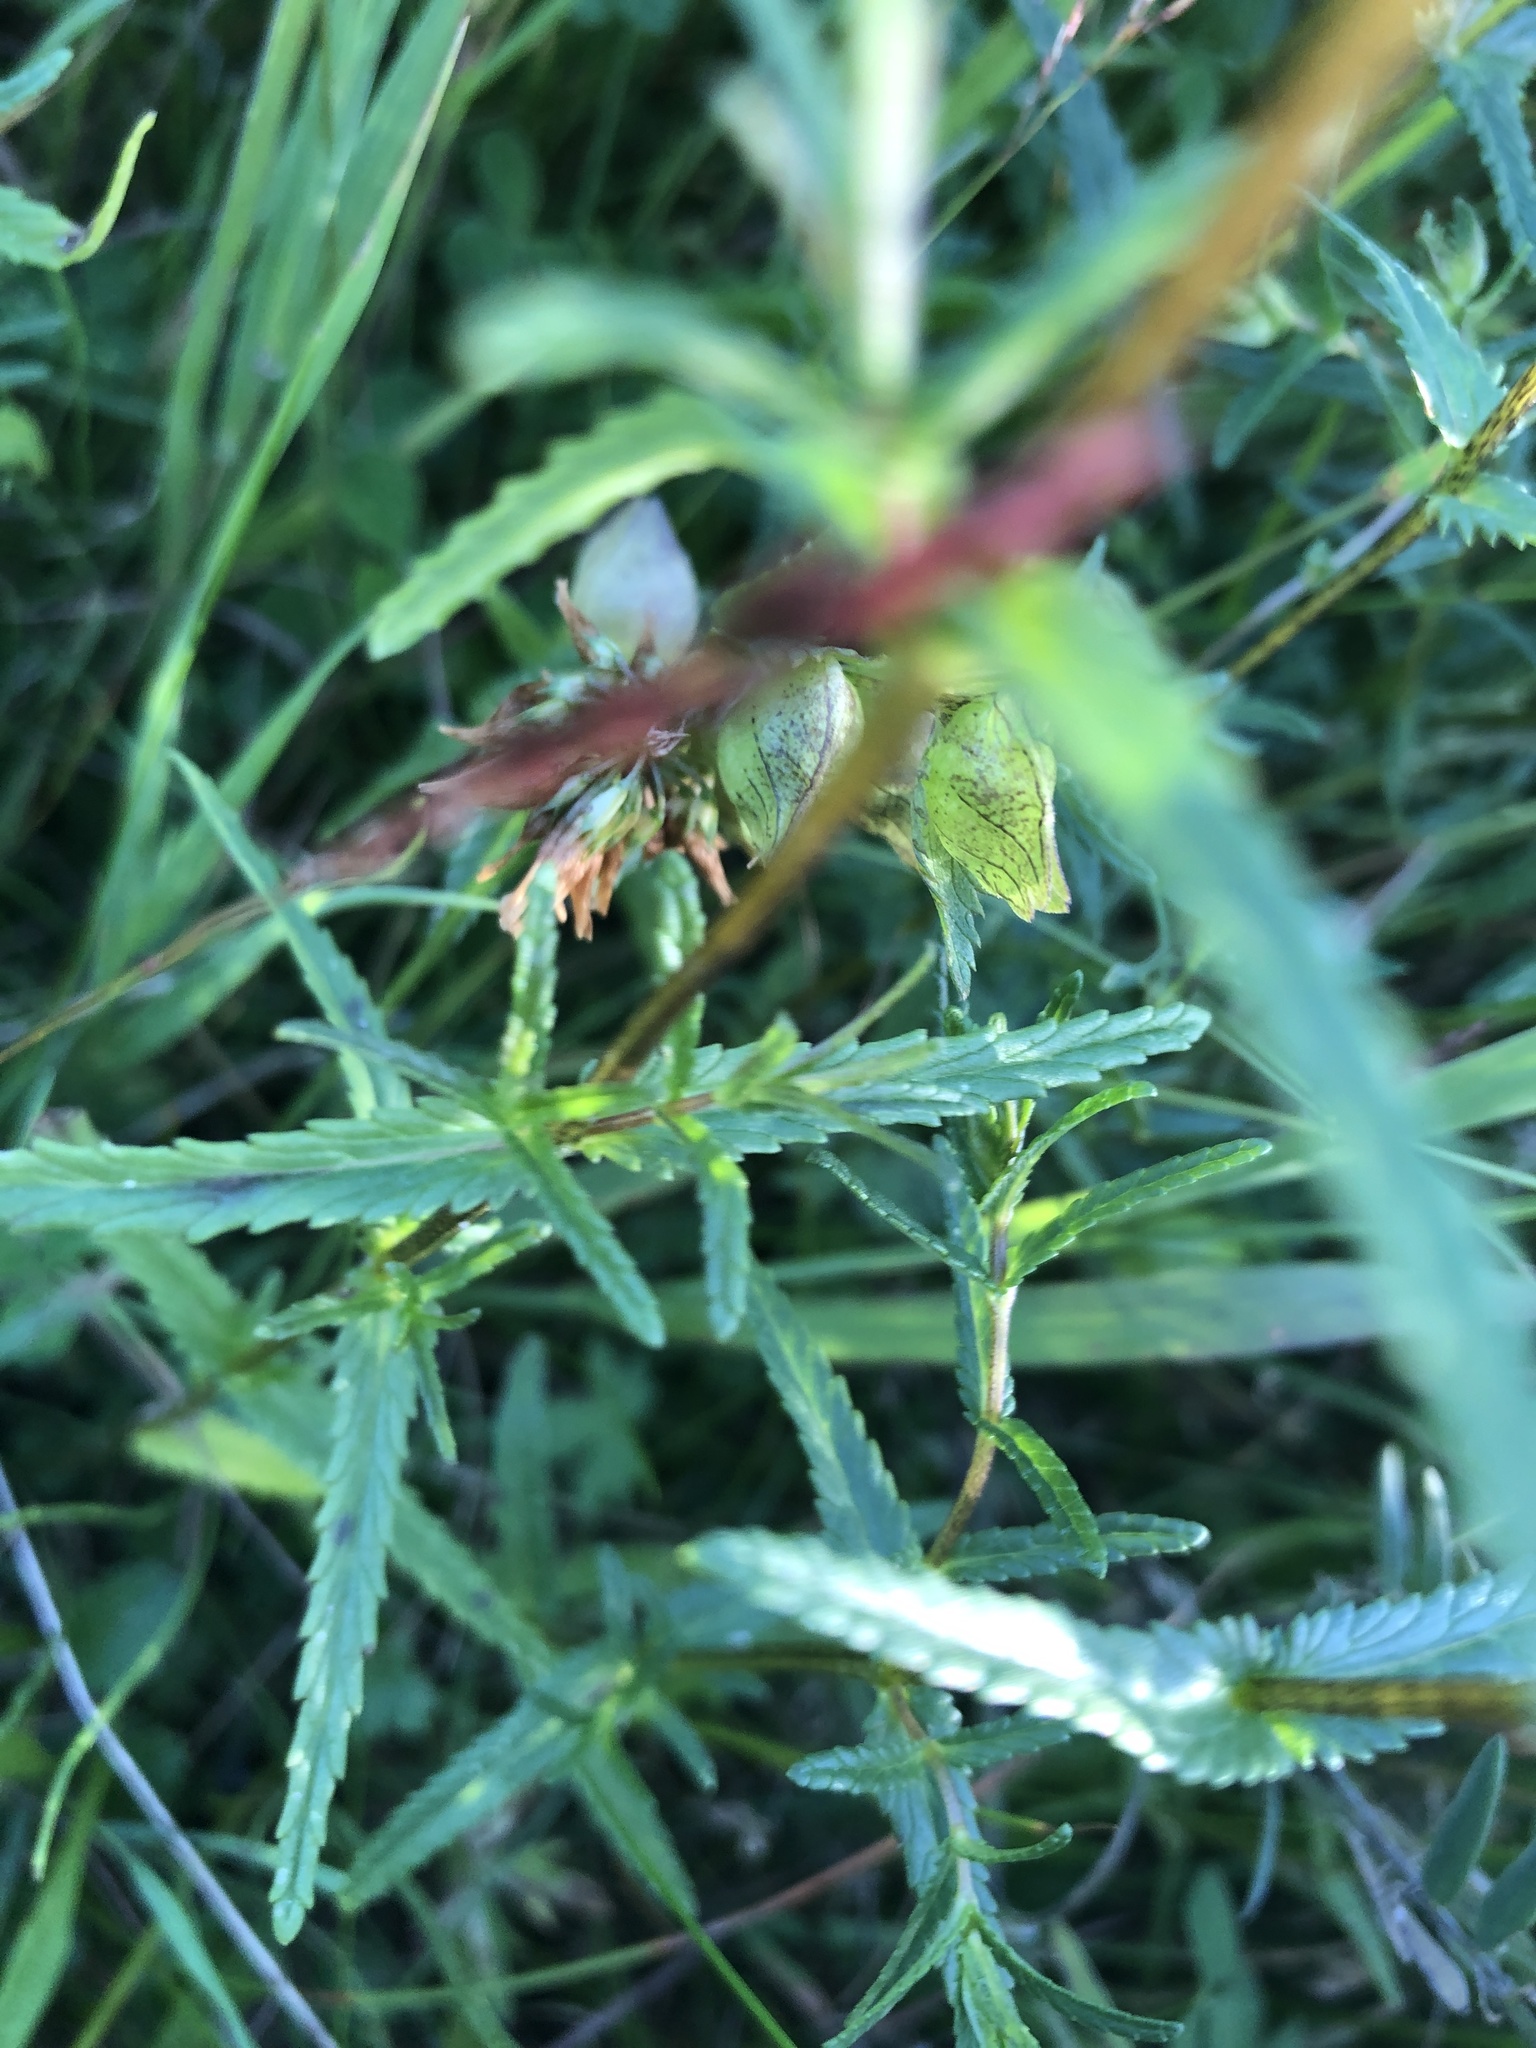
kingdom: Plantae
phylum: Tracheophyta
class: Magnoliopsida
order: Lamiales
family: Orobanchaceae
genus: Rhinanthus
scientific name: Rhinanthus minor
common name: Yellow-rattle
